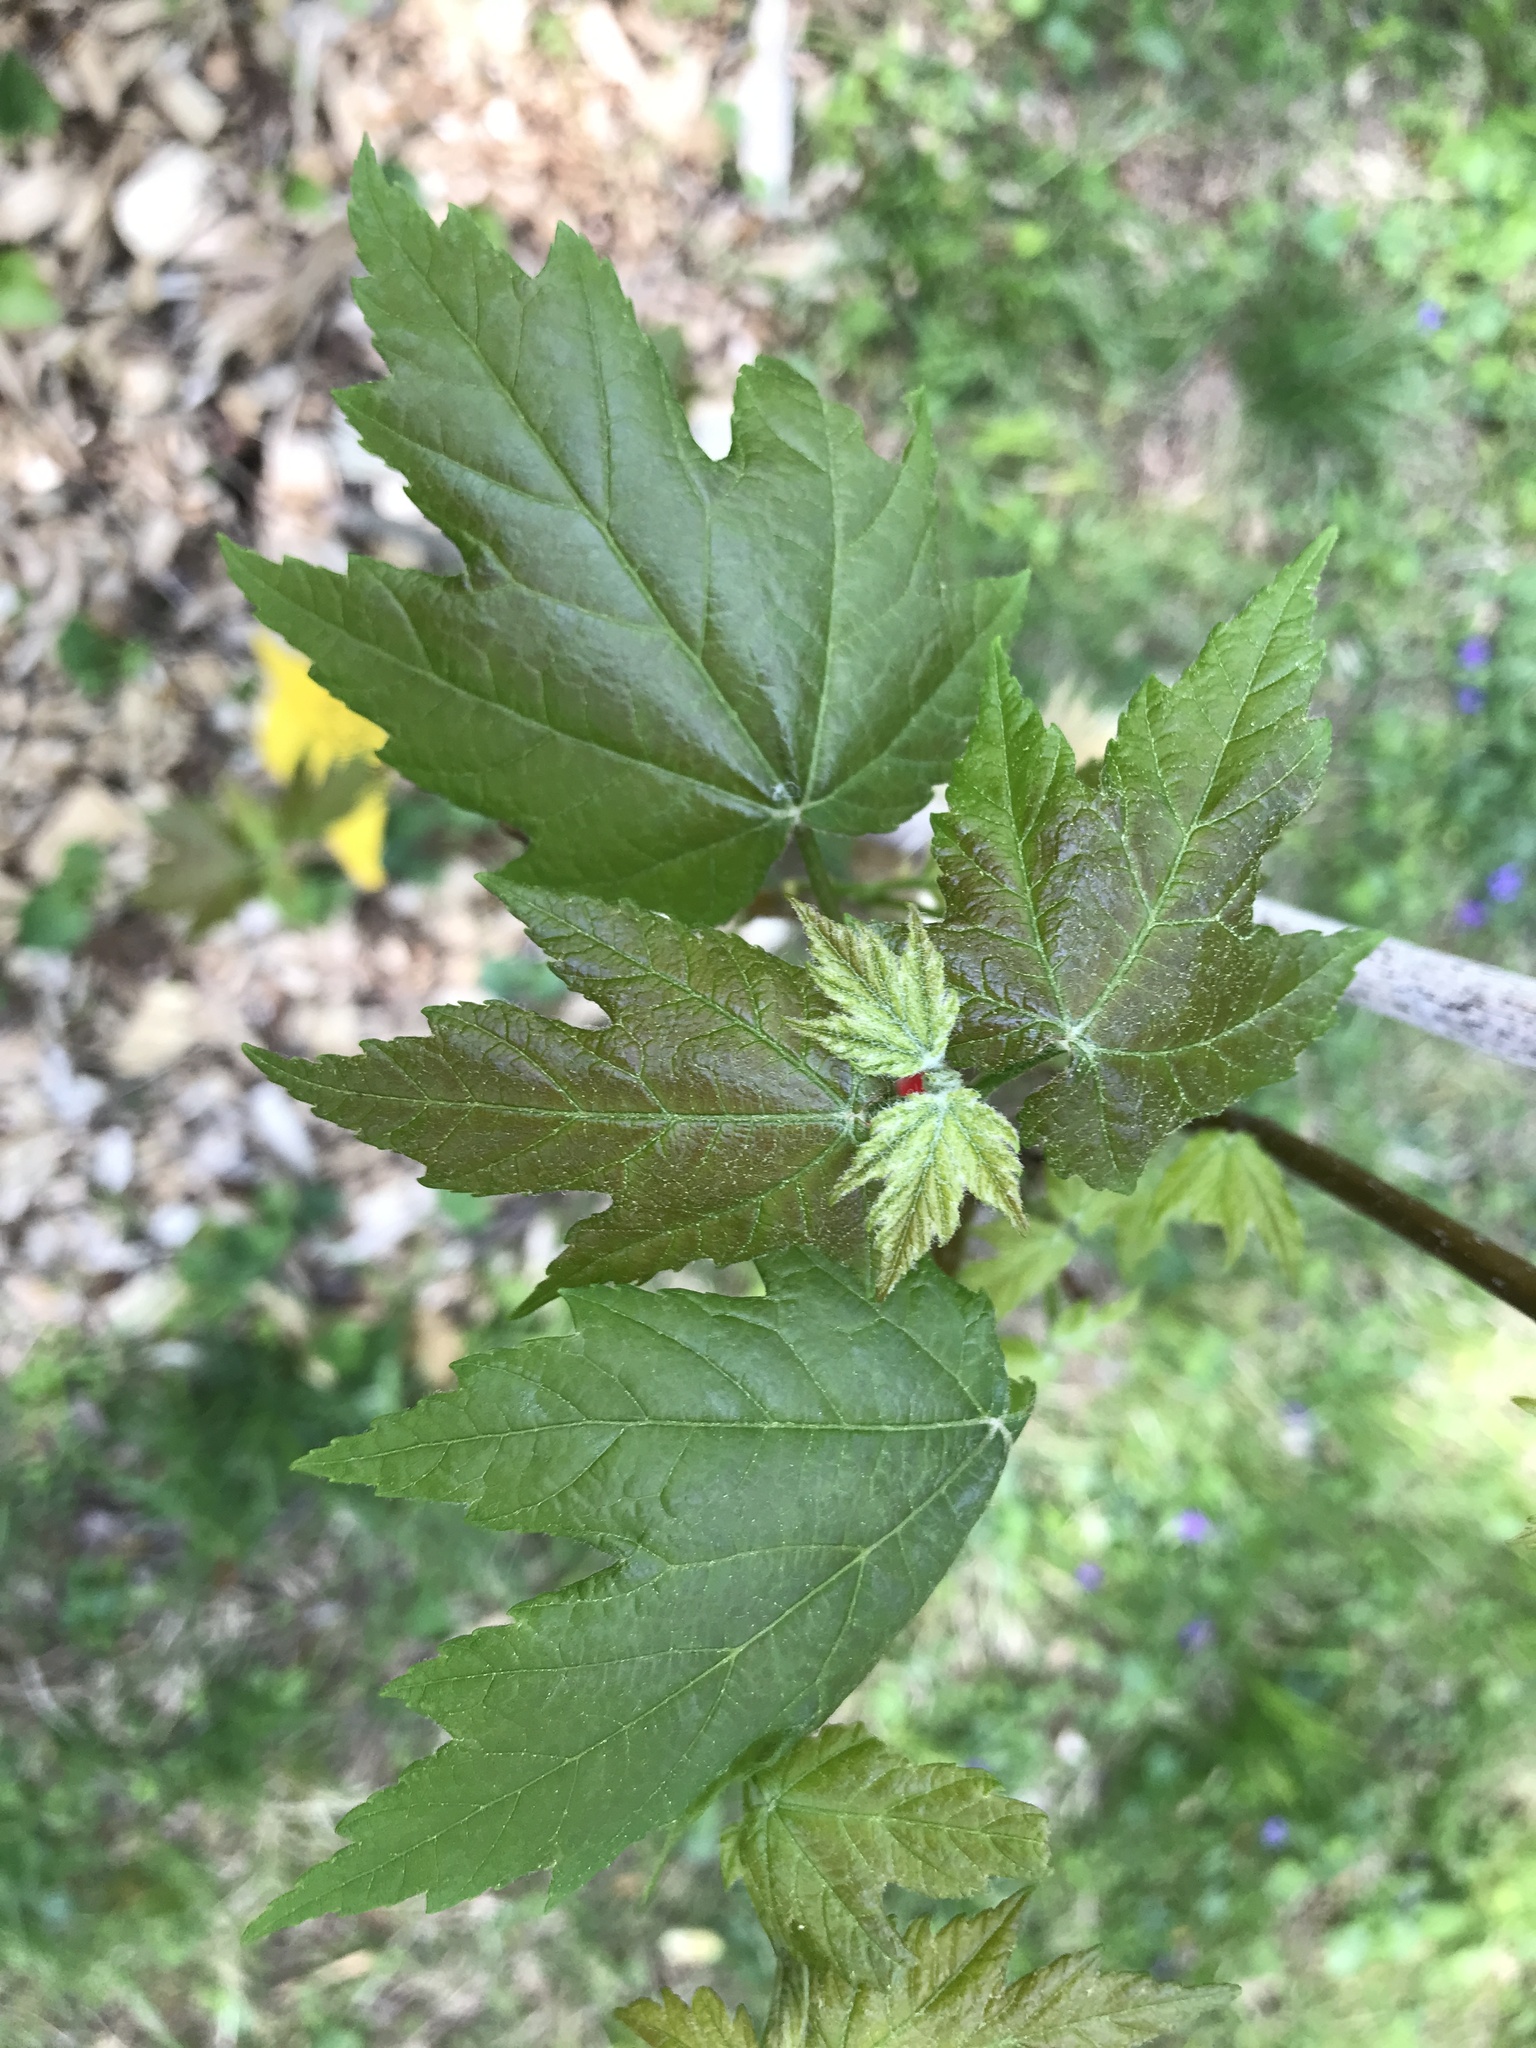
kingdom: Plantae
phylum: Tracheophyta
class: Magnoliopsida
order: Sapindales
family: Sapindaceae
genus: Acer
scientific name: Acer rubrum
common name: Red maple
